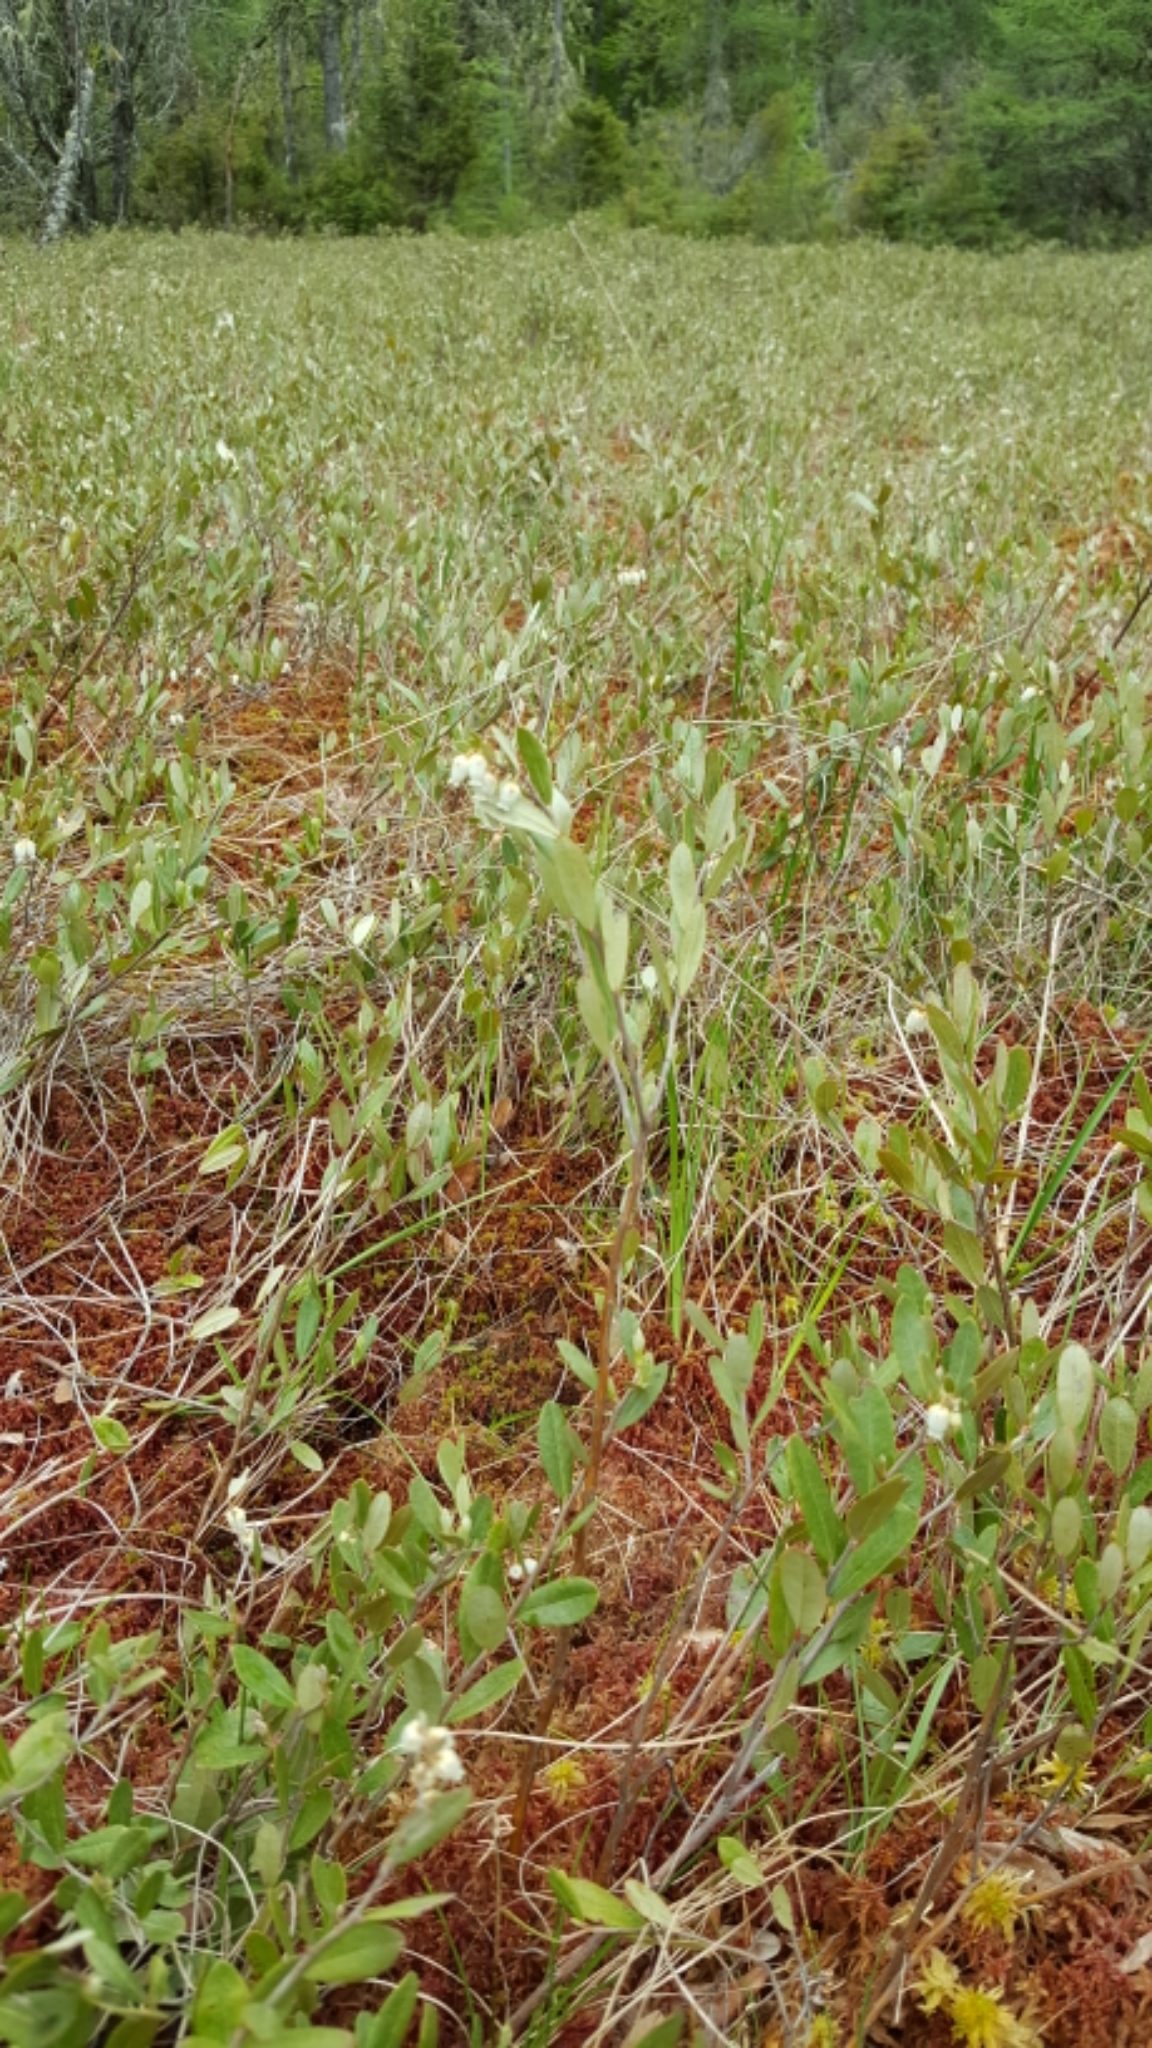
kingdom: Plantae
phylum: Tracheophyta
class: Magnoliopsida
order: Ericales
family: Ericaceae
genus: Chamaedaphne
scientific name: Chamaedaphne calyculata
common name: Leatherleaf
